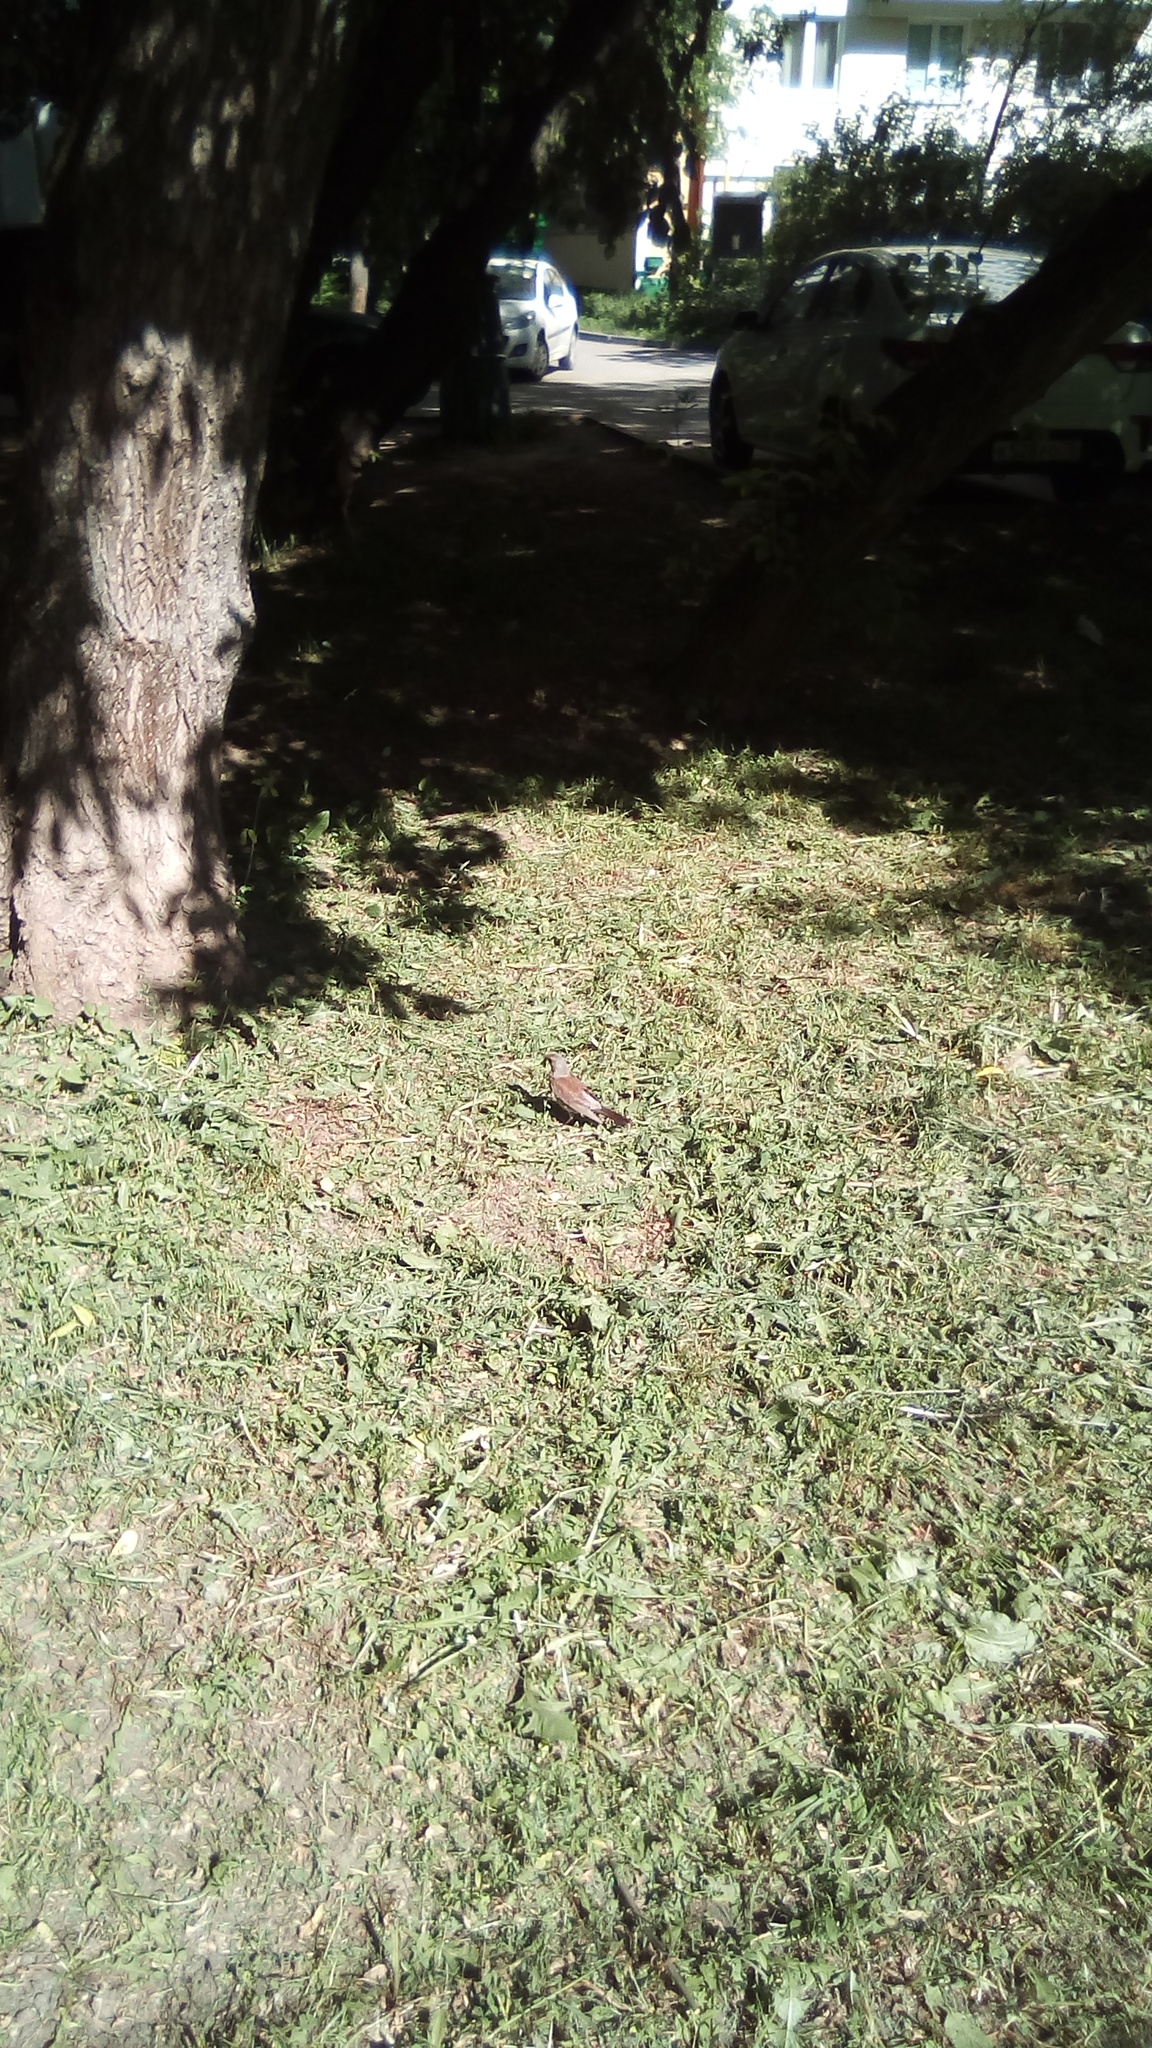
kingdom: Animalia
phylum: Chordata
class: Aves
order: Passeriformes
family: Turdidae
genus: Turdus
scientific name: Turdus pilaris
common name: Fieldfare
